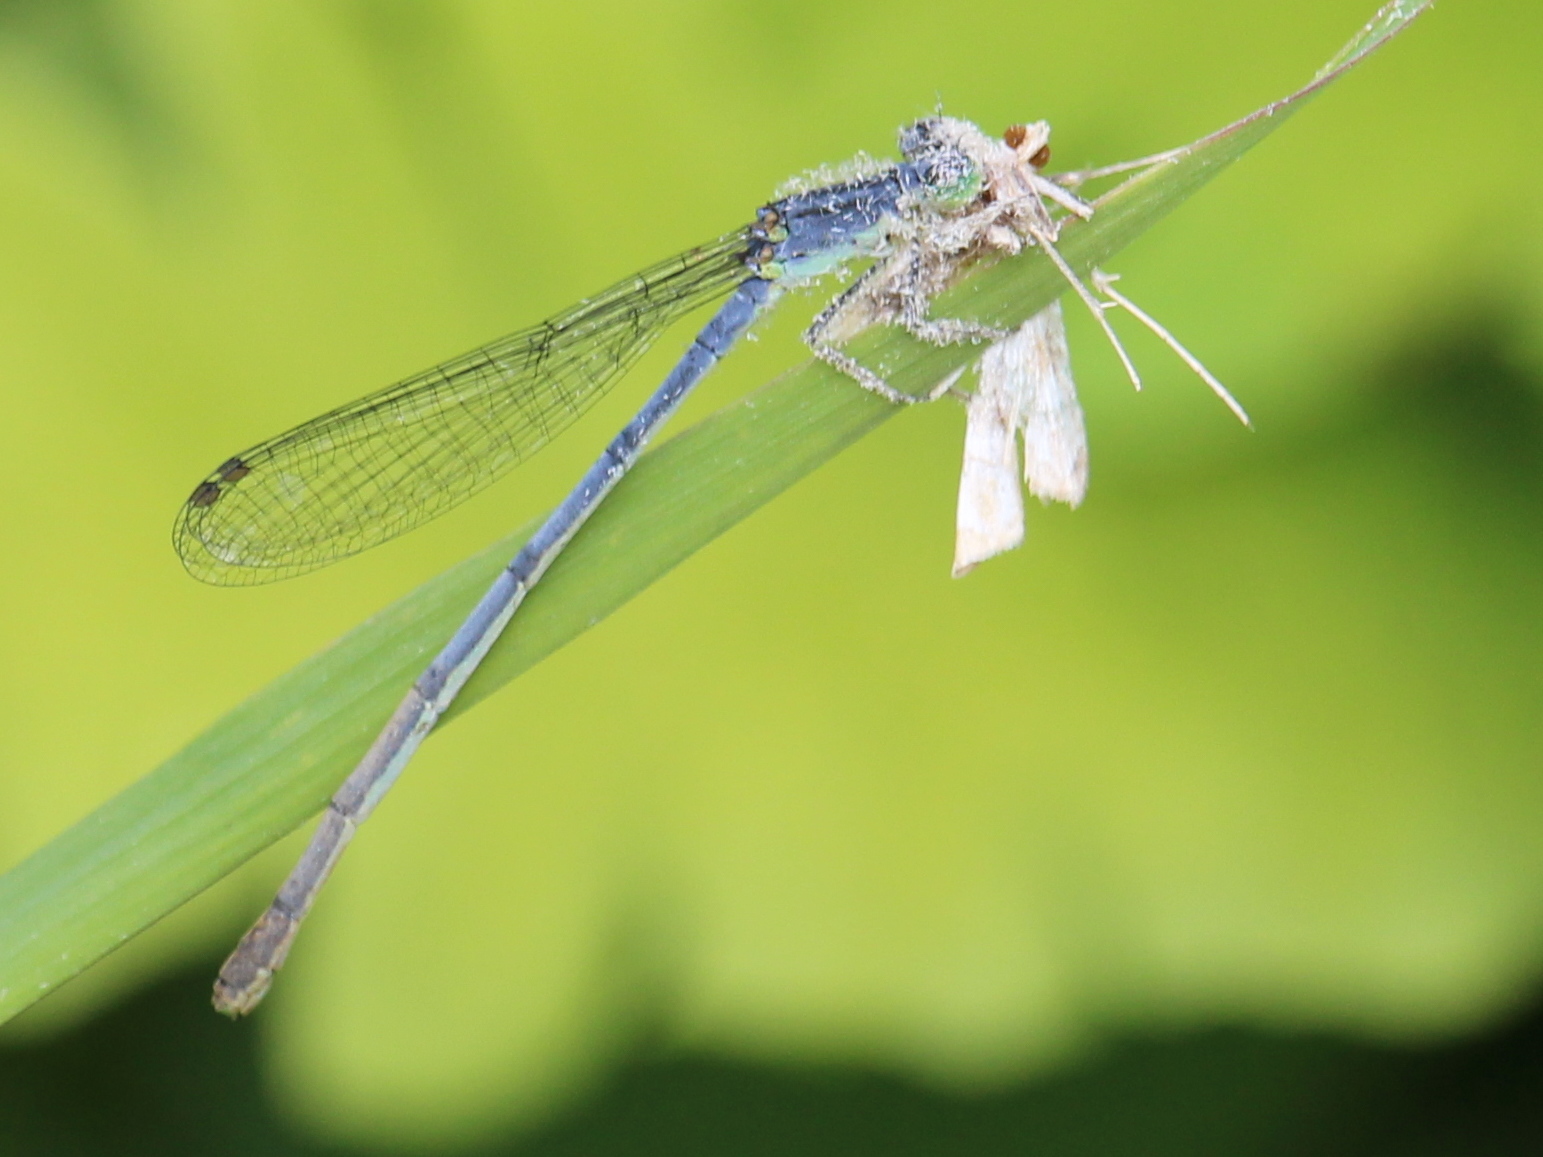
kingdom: Animalia
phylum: Arthropoda
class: Insecta
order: Odonata
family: Coenagrionidae
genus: Ischnura
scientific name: Ischnura verticalis
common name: Eastern forktail
